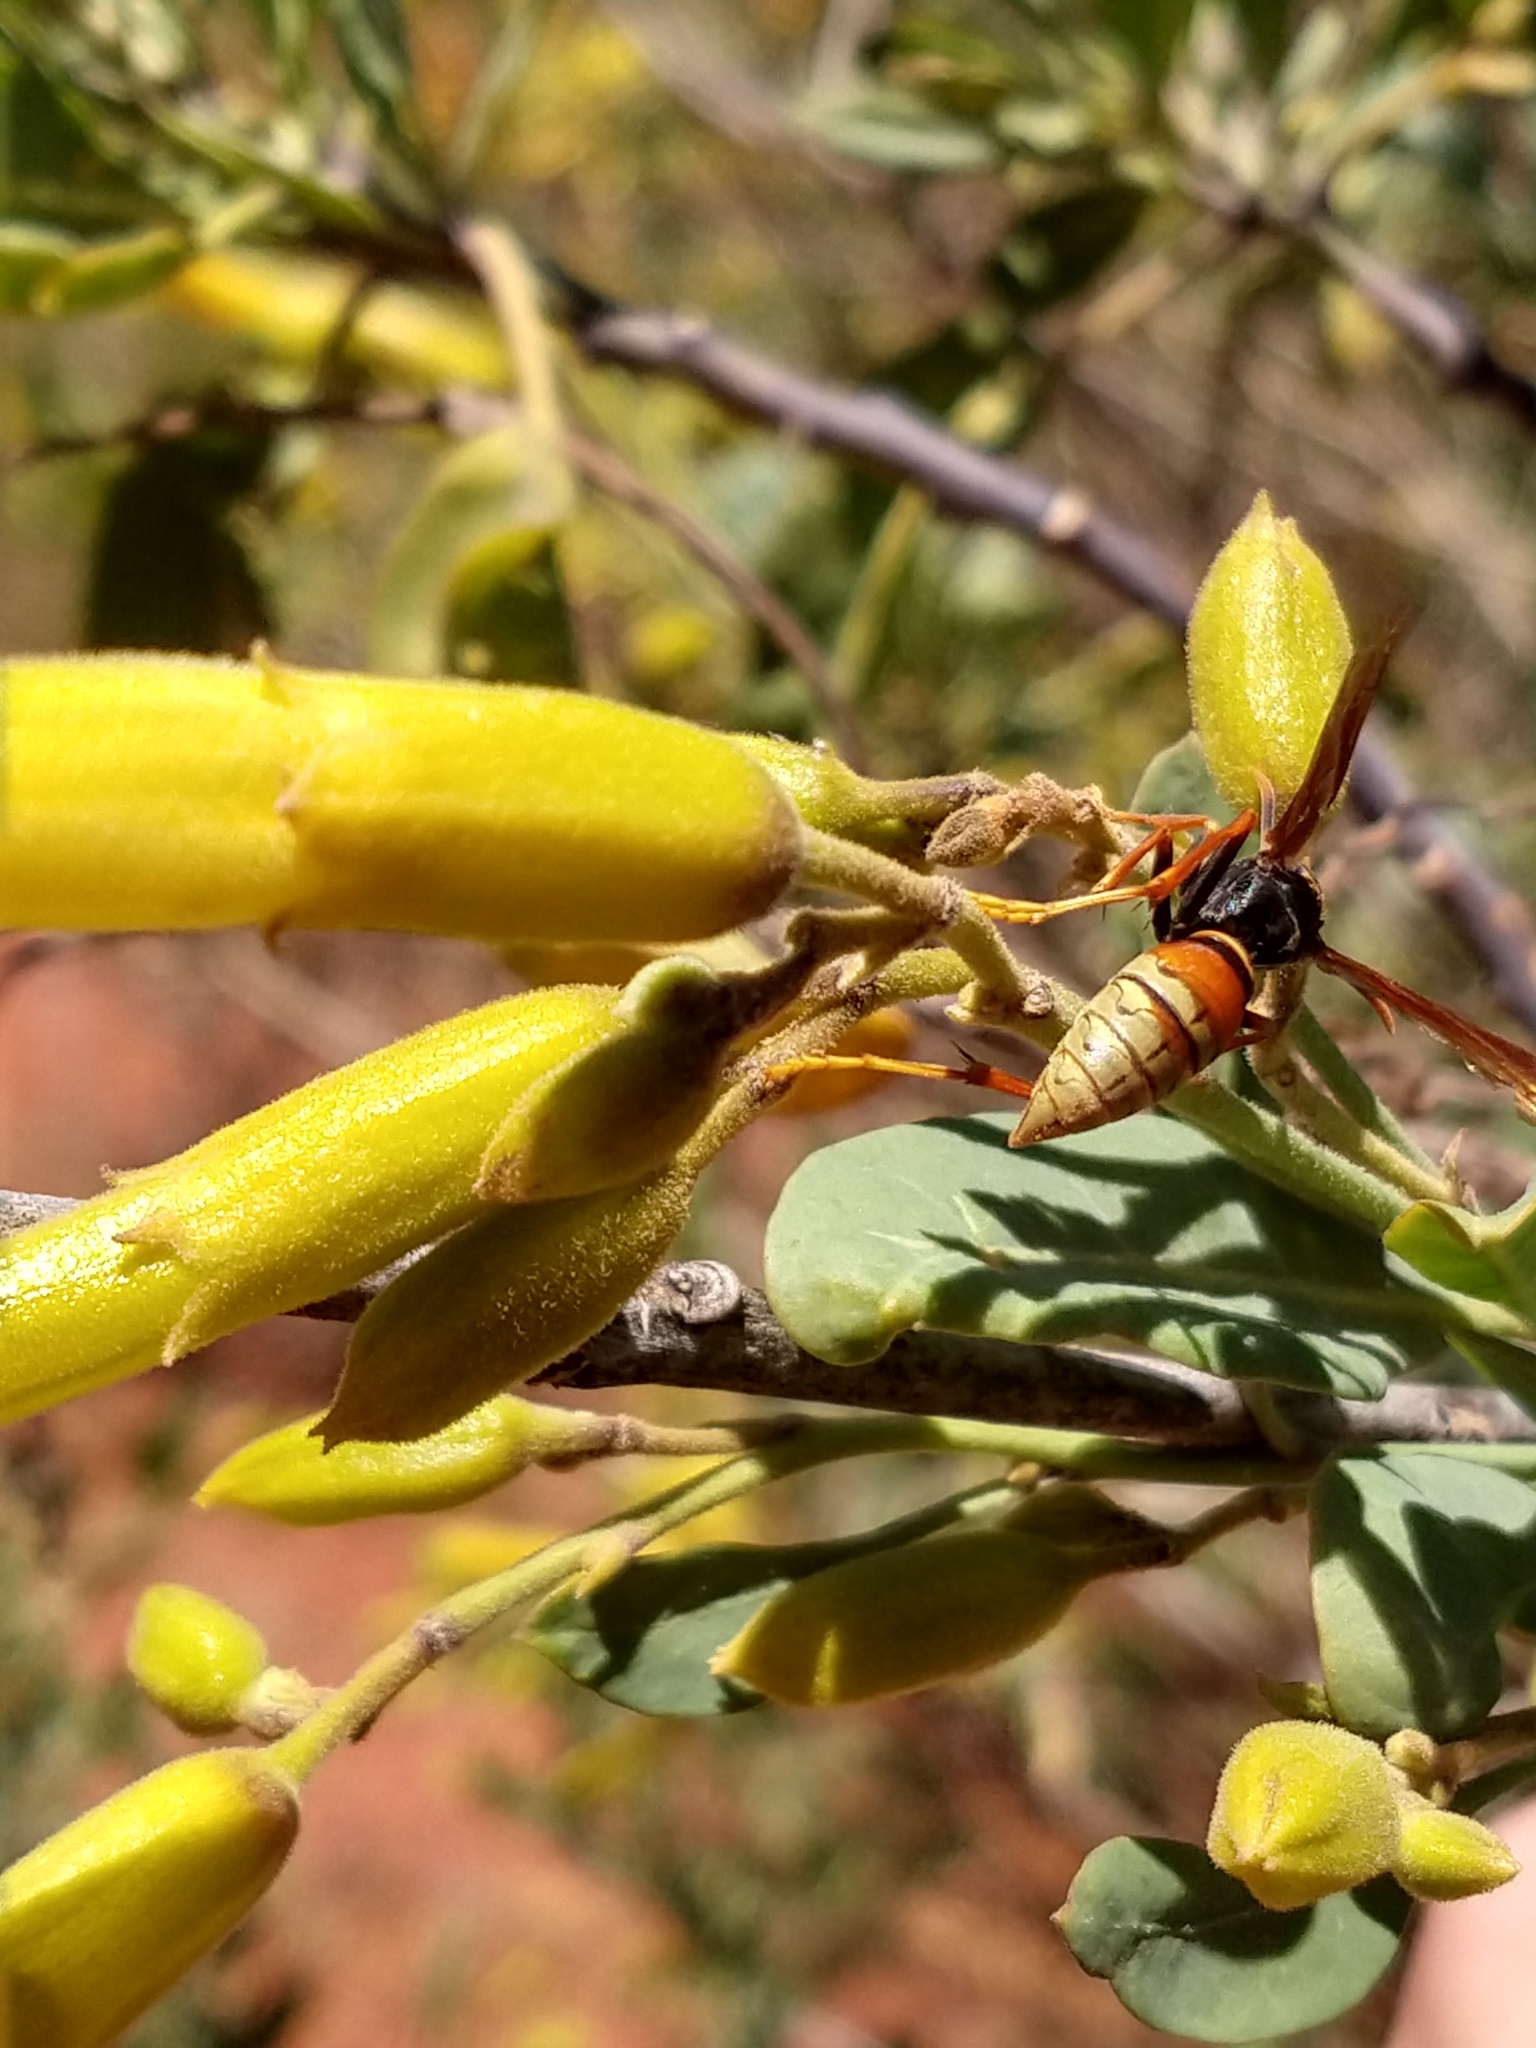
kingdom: Animalia
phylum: Arthropoda
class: Insecta
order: Hymenoptera
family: Eumenidae
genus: Polistes
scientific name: Polistes buyssoni
